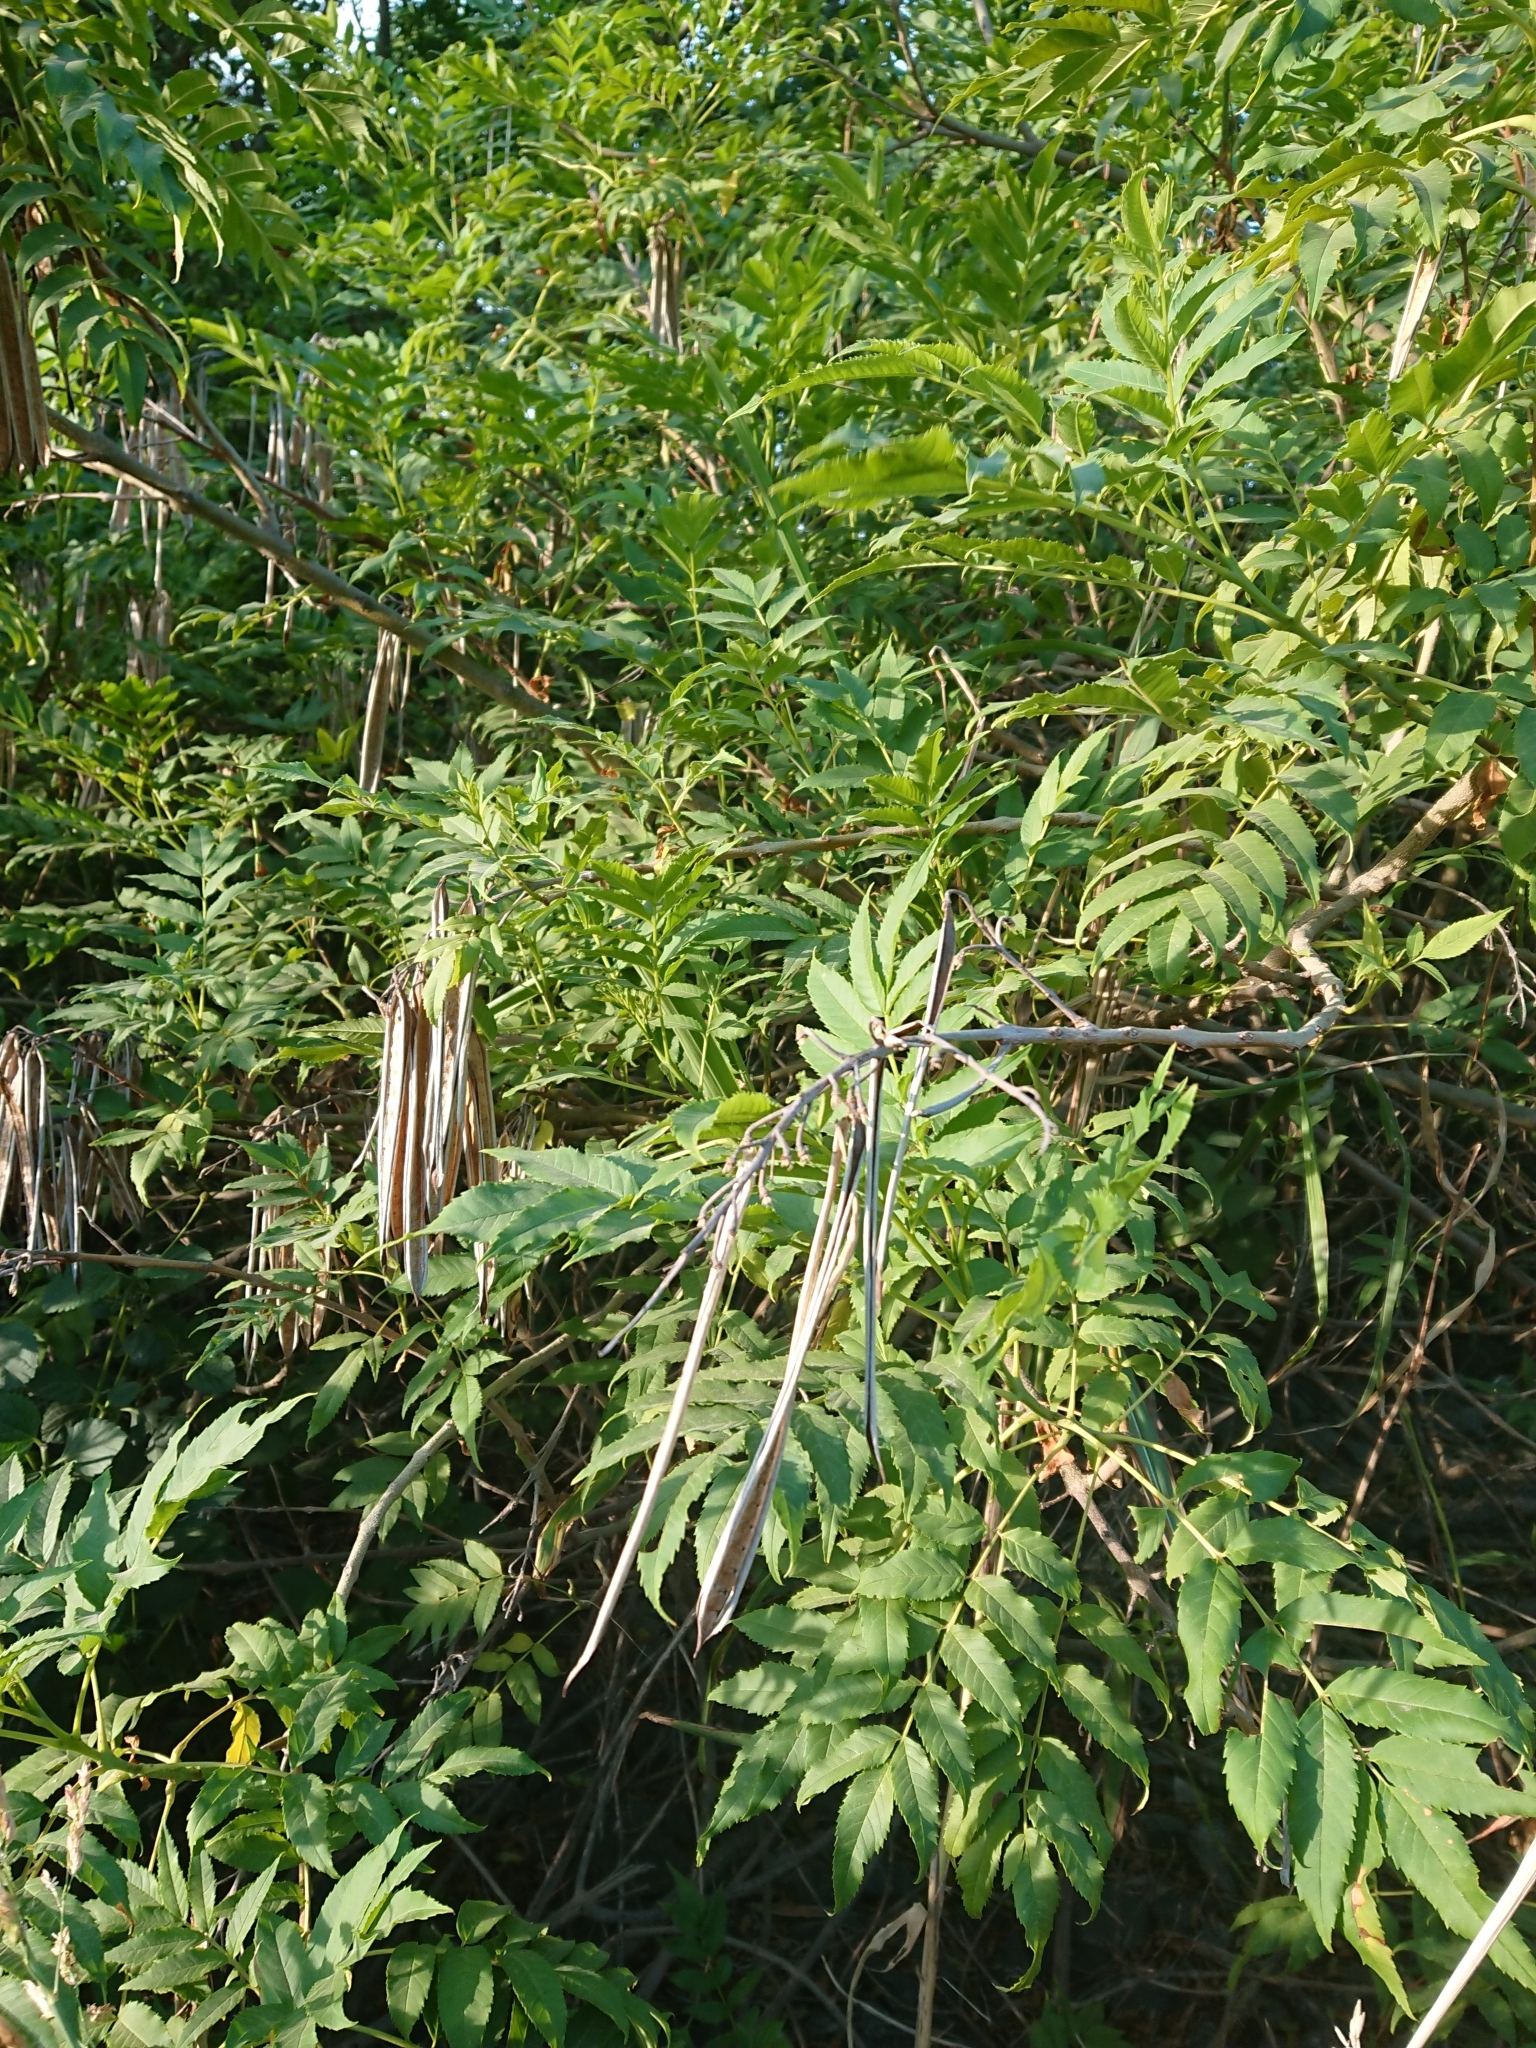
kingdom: Plantae
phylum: Tracheophyta
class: Magnoliopsida
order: Lamiales
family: Bignoniaceae
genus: Tecoma
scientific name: Tecoma stans
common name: Yellow trumpetbush
